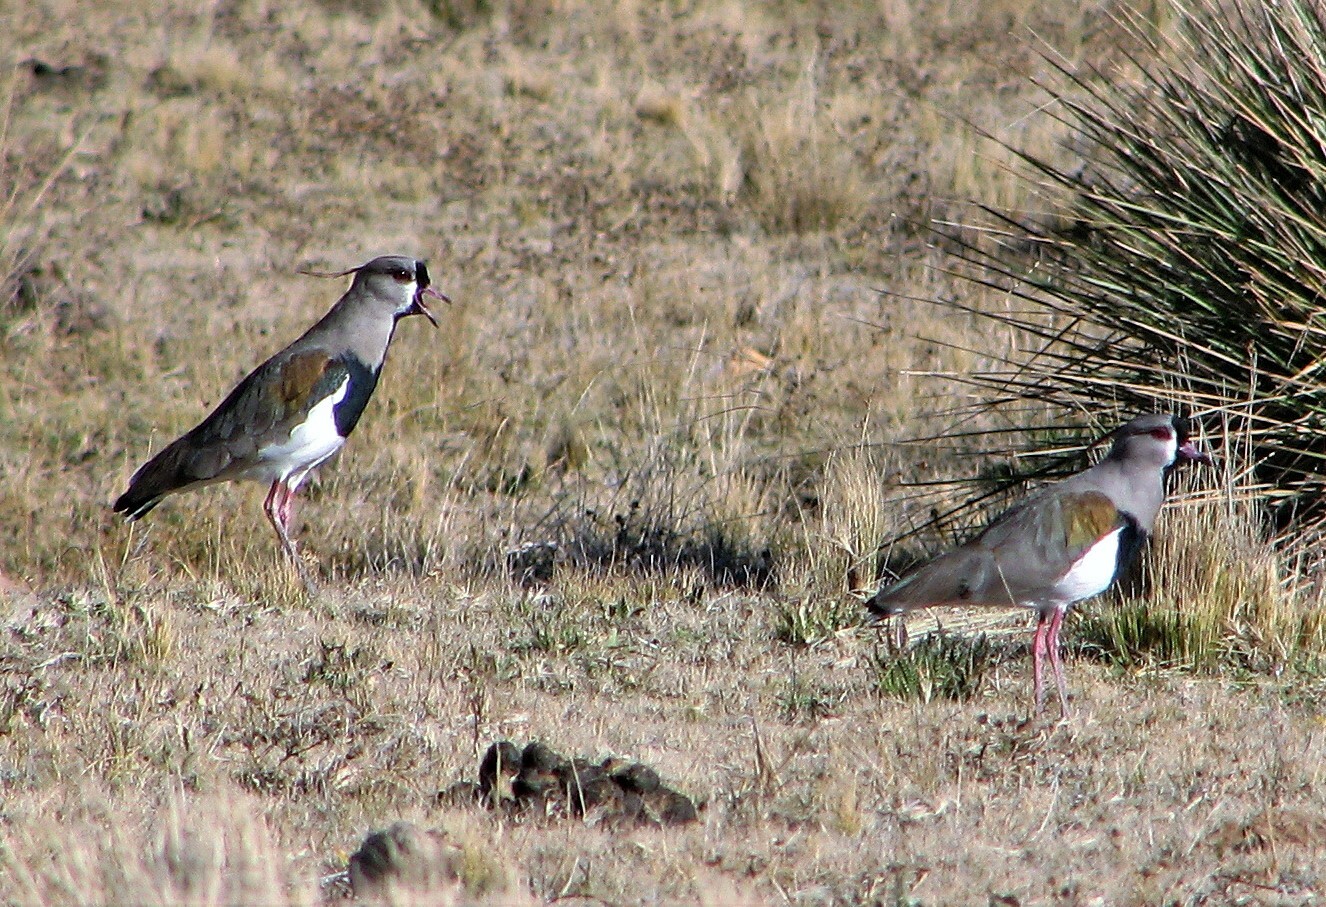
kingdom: Animalia
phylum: Chordata
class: Aves
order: Charadriiformes
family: Charadriidae
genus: Vanellus
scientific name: Vanellus chilensis
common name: Southern lapwing
